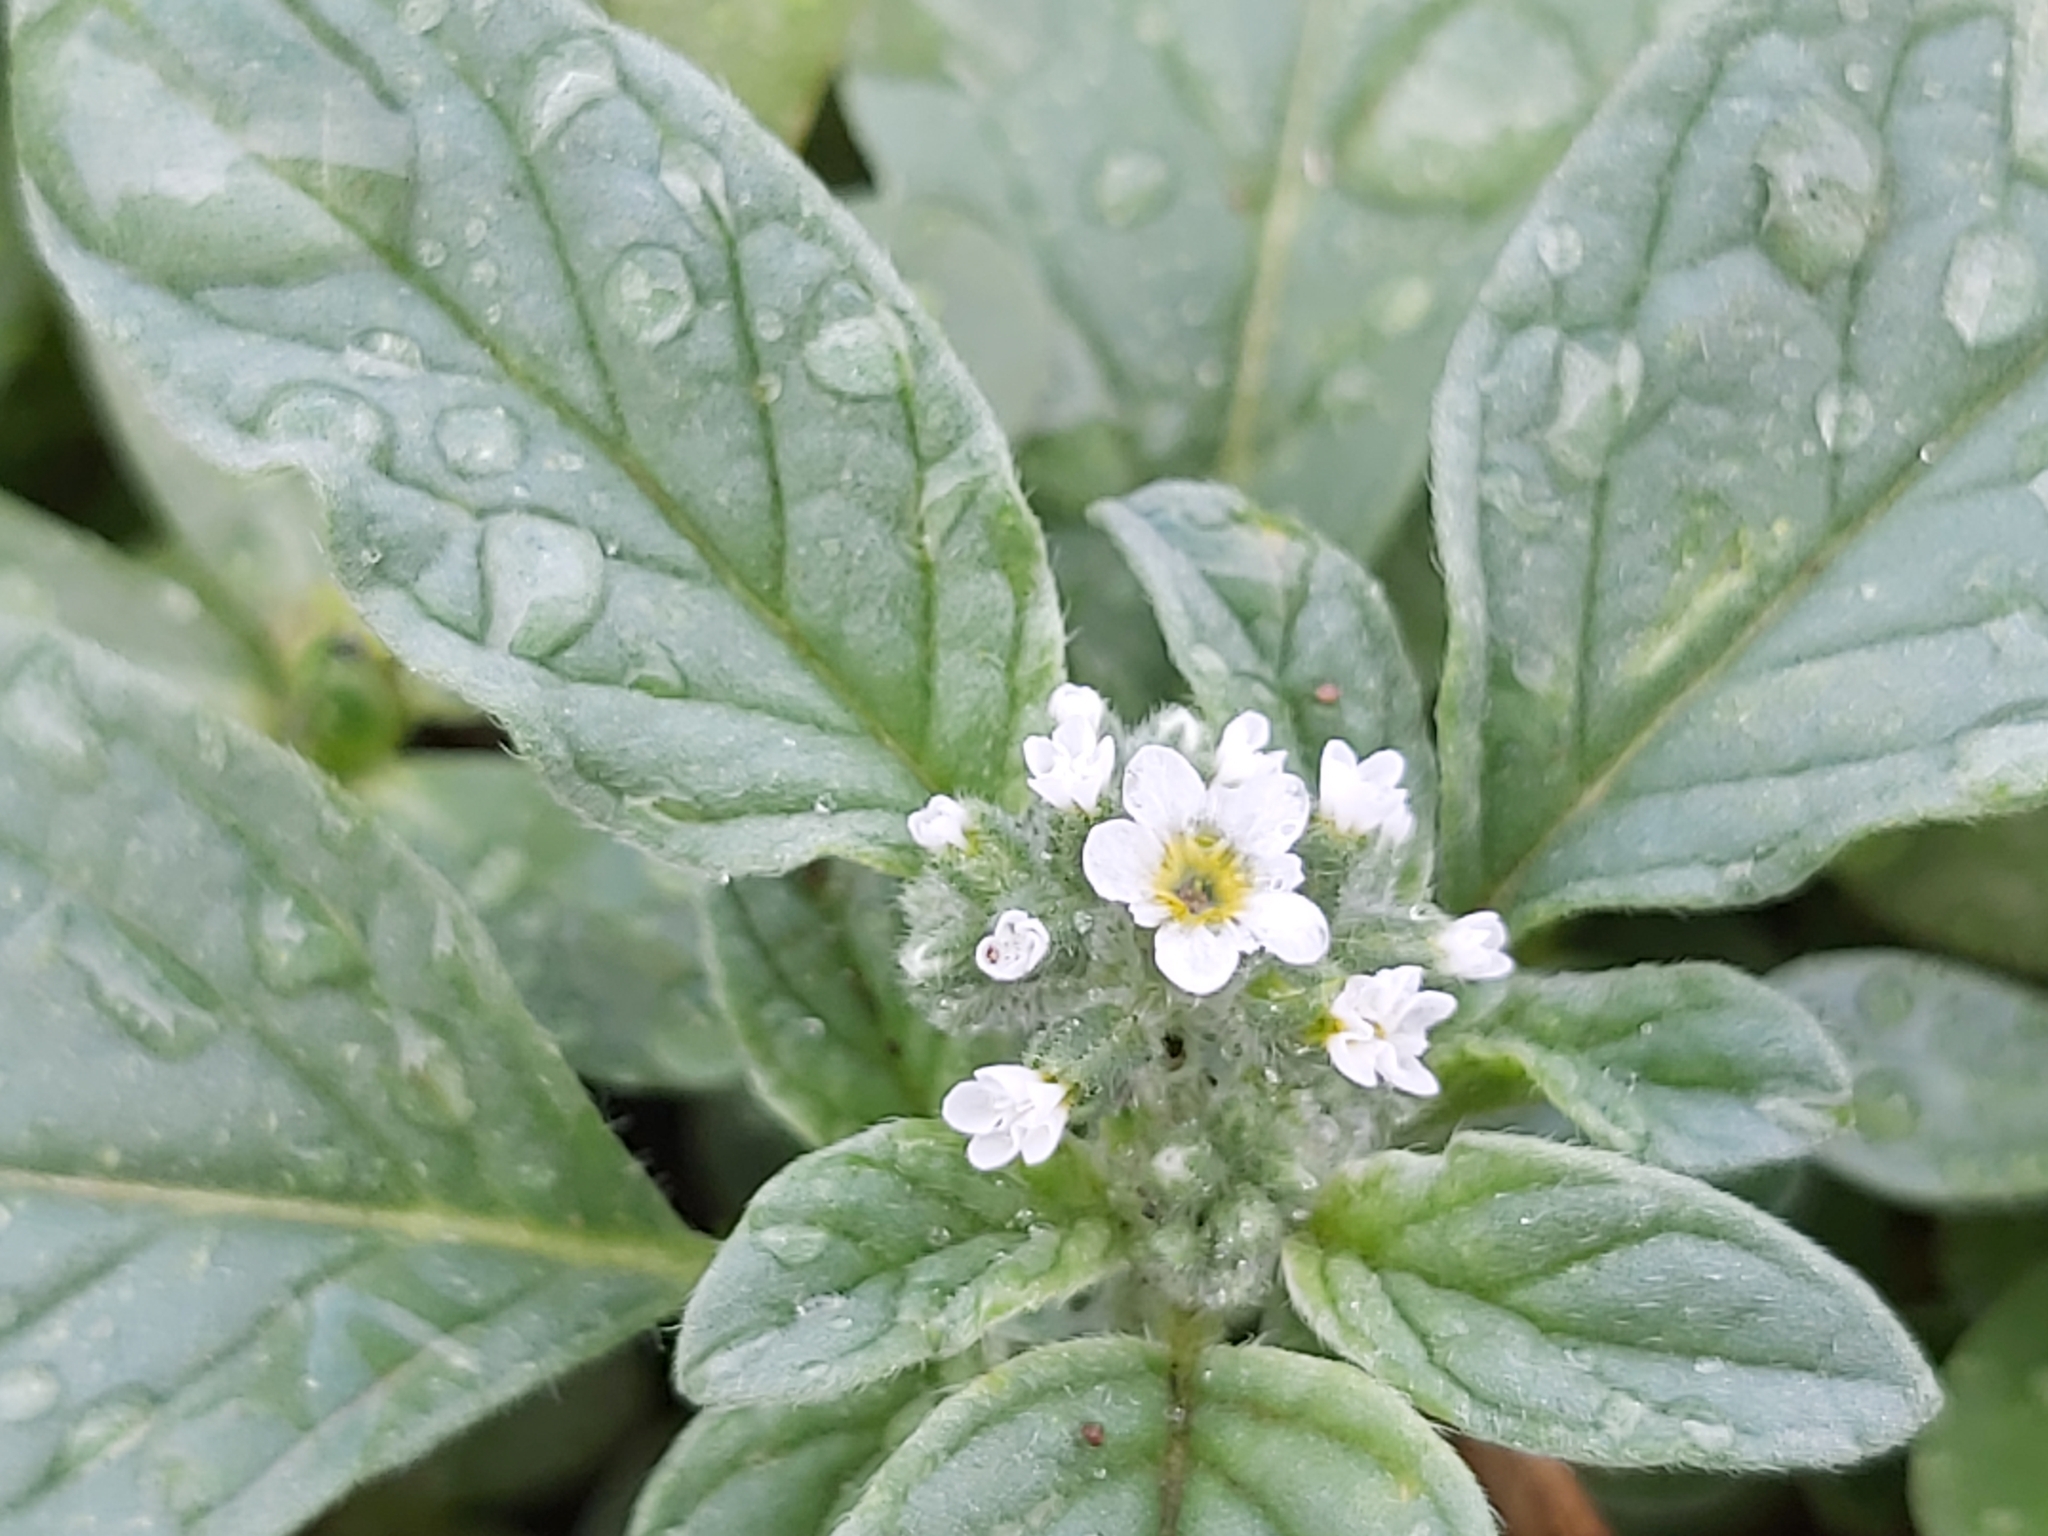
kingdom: Plantae
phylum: Tracheophyta
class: Magnoliopsida
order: Boraginales
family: Heliotropiaceae
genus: Heliotropium
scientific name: Heliotropium europaeum
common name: European heliotrope
